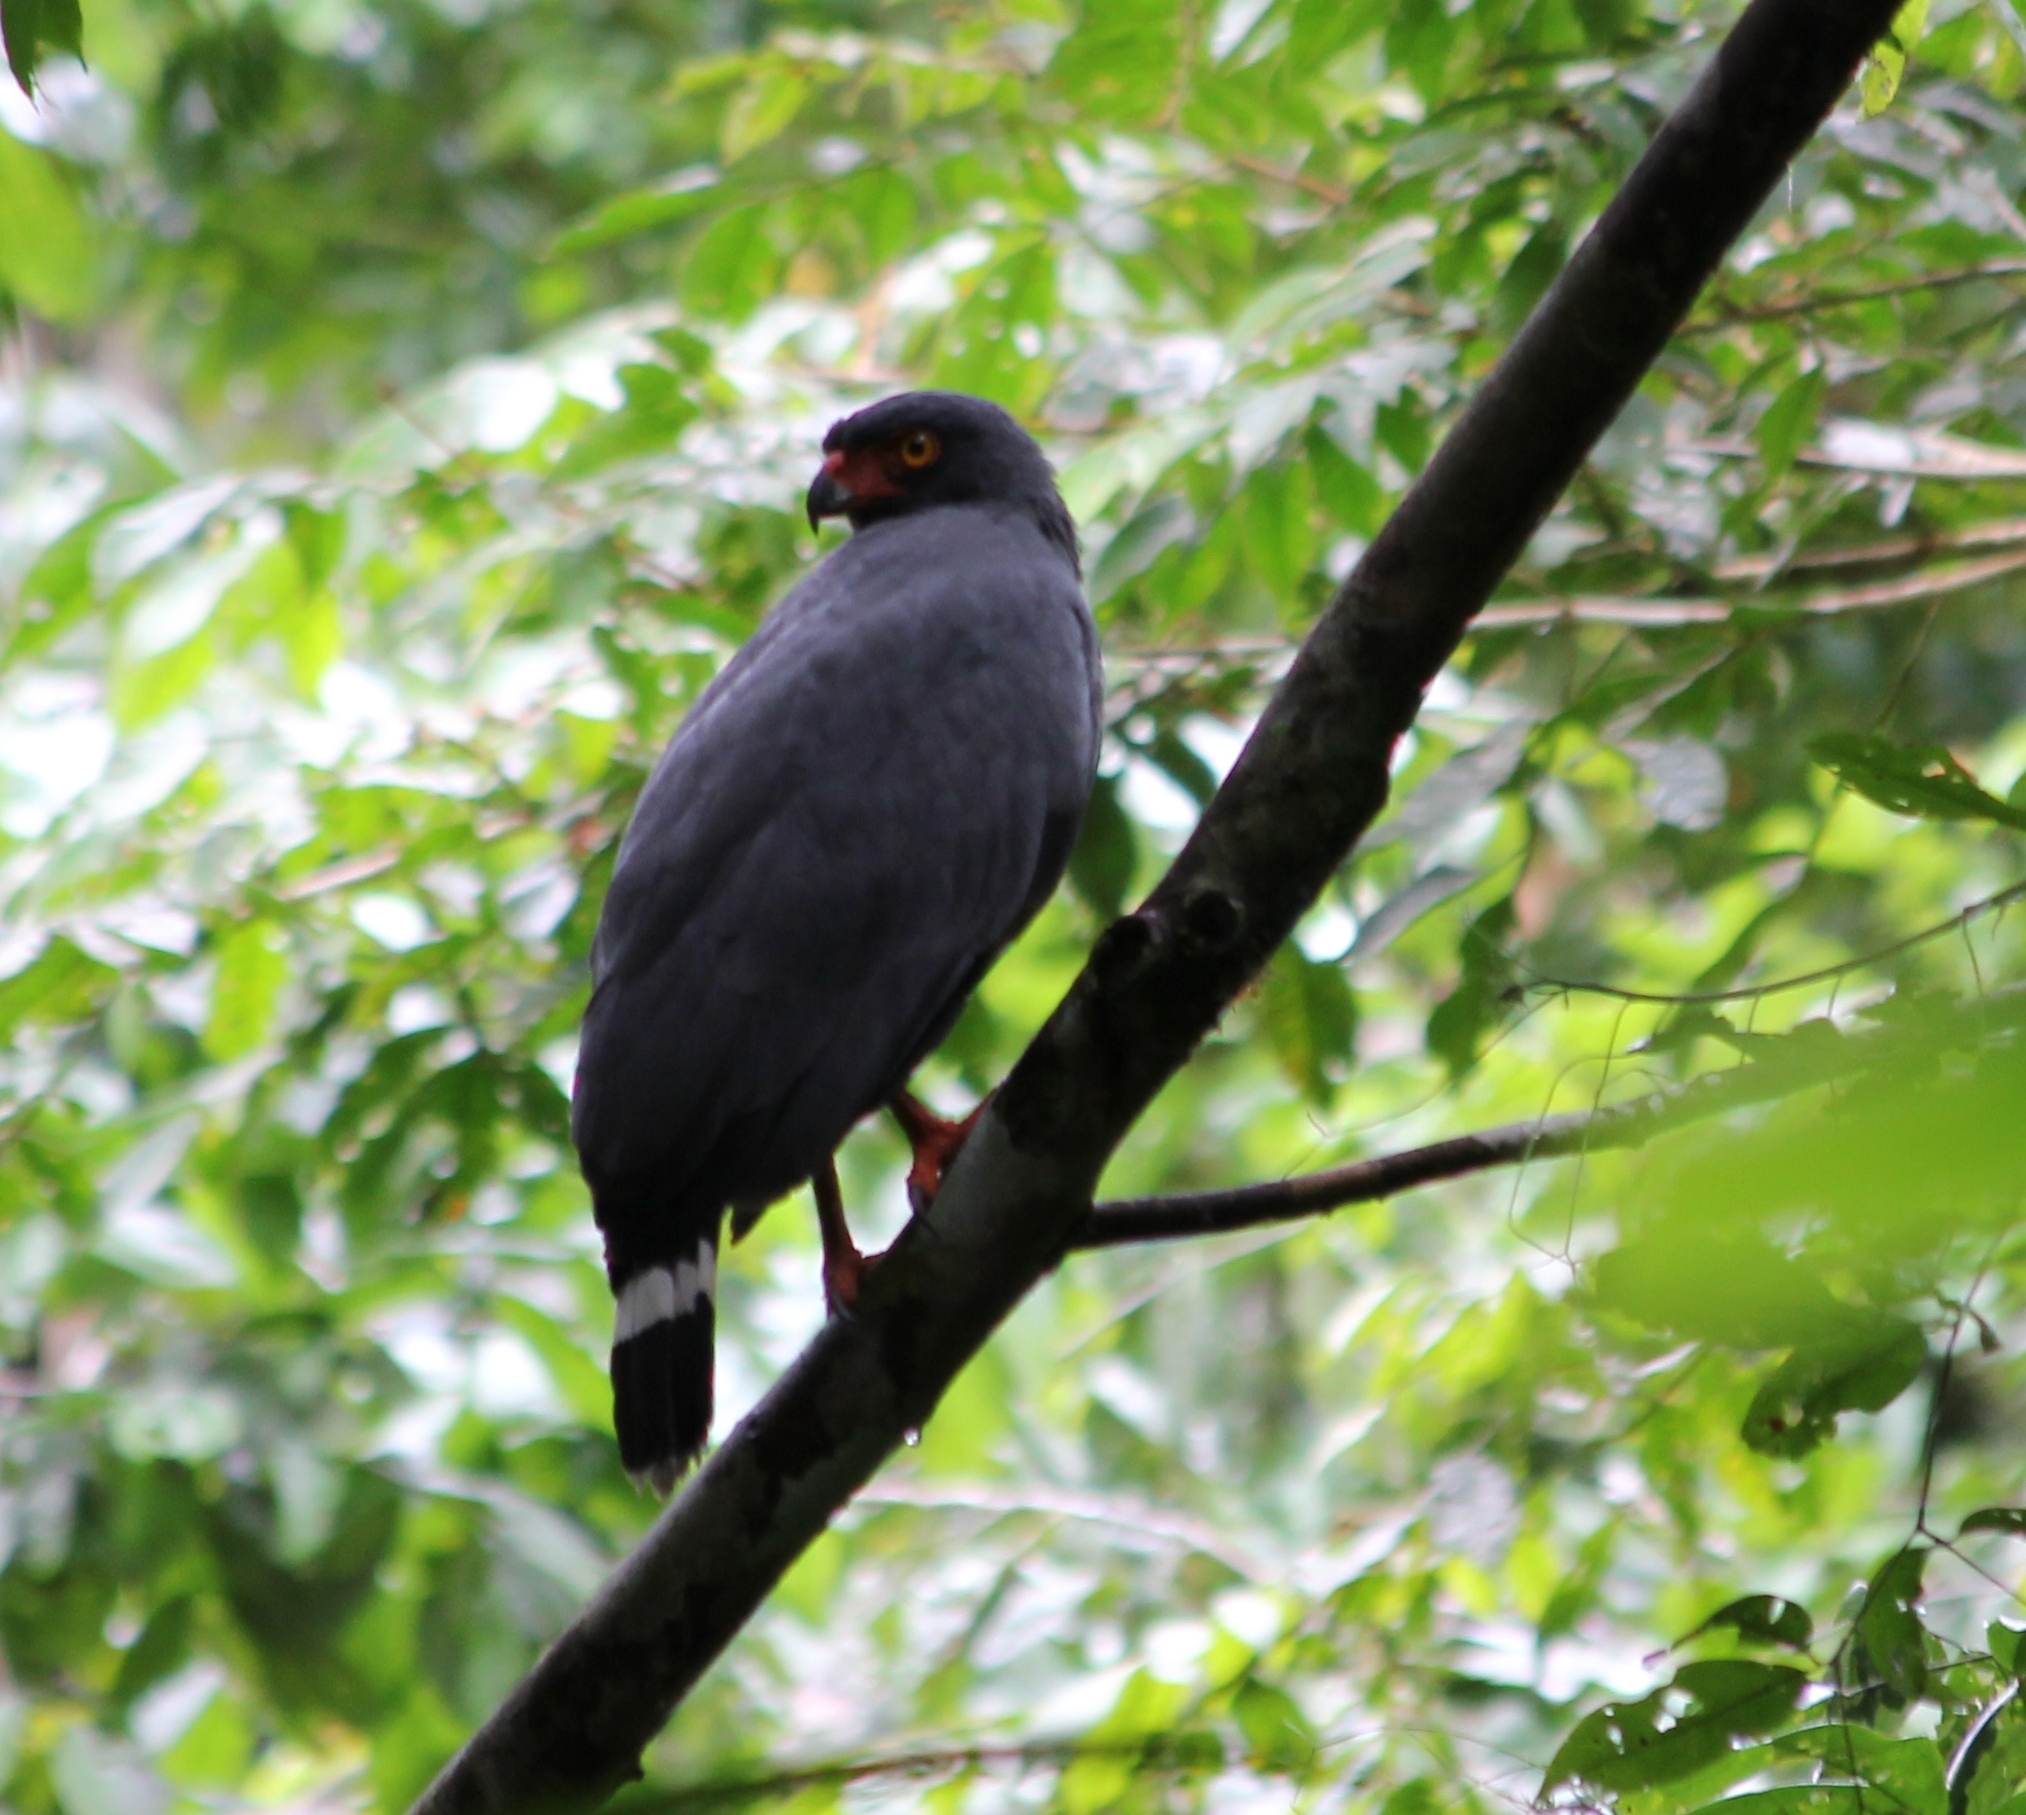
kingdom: Animalia
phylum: Chordata
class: Aves
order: Accipitriformes
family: Accipitridae
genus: Leucopternis
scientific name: Leucopternis schistaceus
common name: Slate-colored hawk
